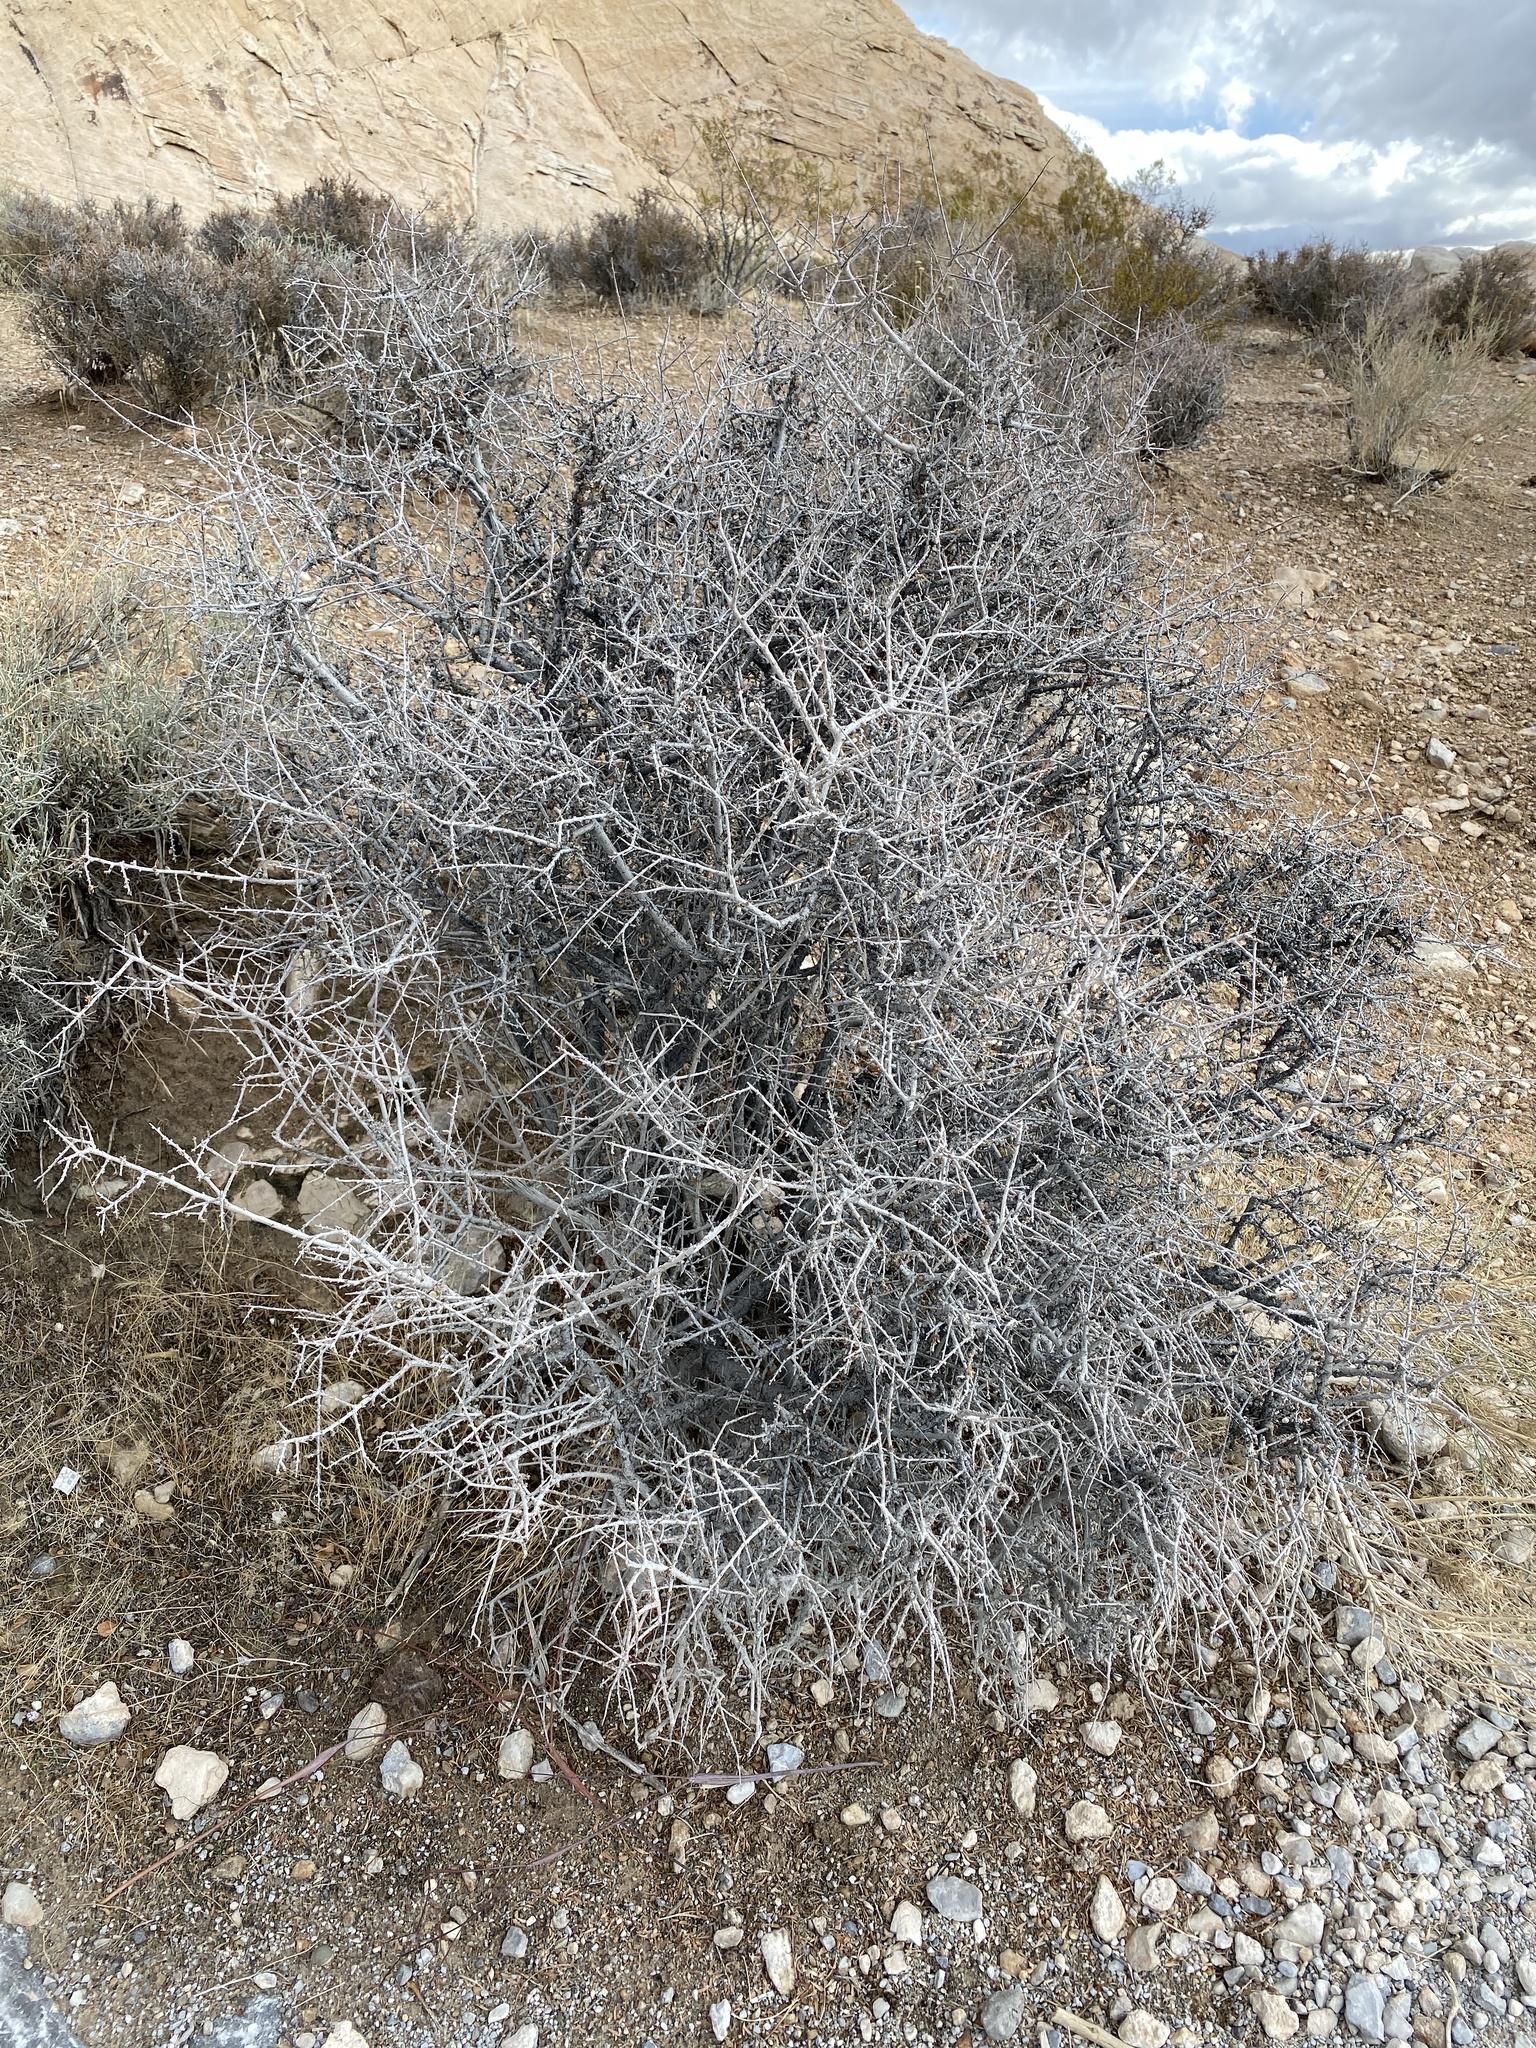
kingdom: Plantae
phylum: Tracheophyta
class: Magnoliopsida
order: Rosales
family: Rosaceae
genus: Prunus
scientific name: Prunus fasciculata
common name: Desert almond
